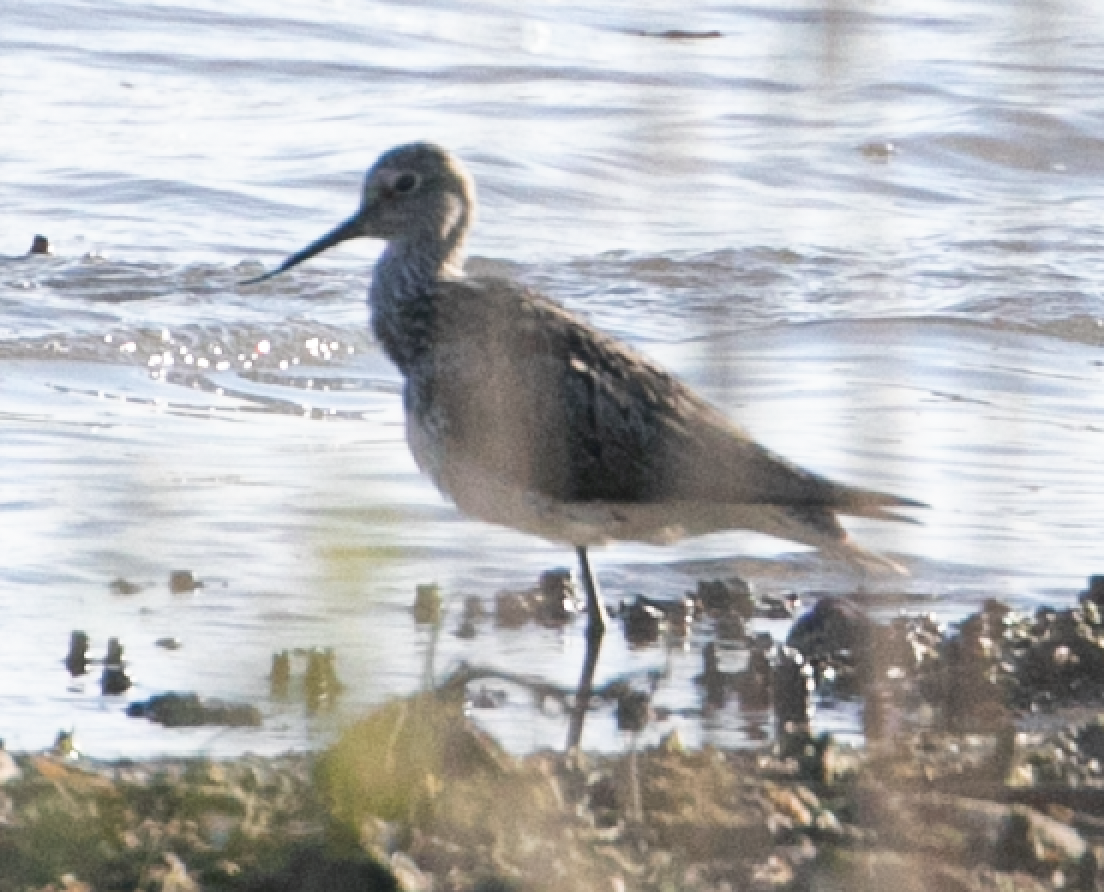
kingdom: Animalia
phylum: Chordata
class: Aves
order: Charadriiformes
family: Scolopacidae
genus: Tringa
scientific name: Tringa nebularia
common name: Common greenshank
